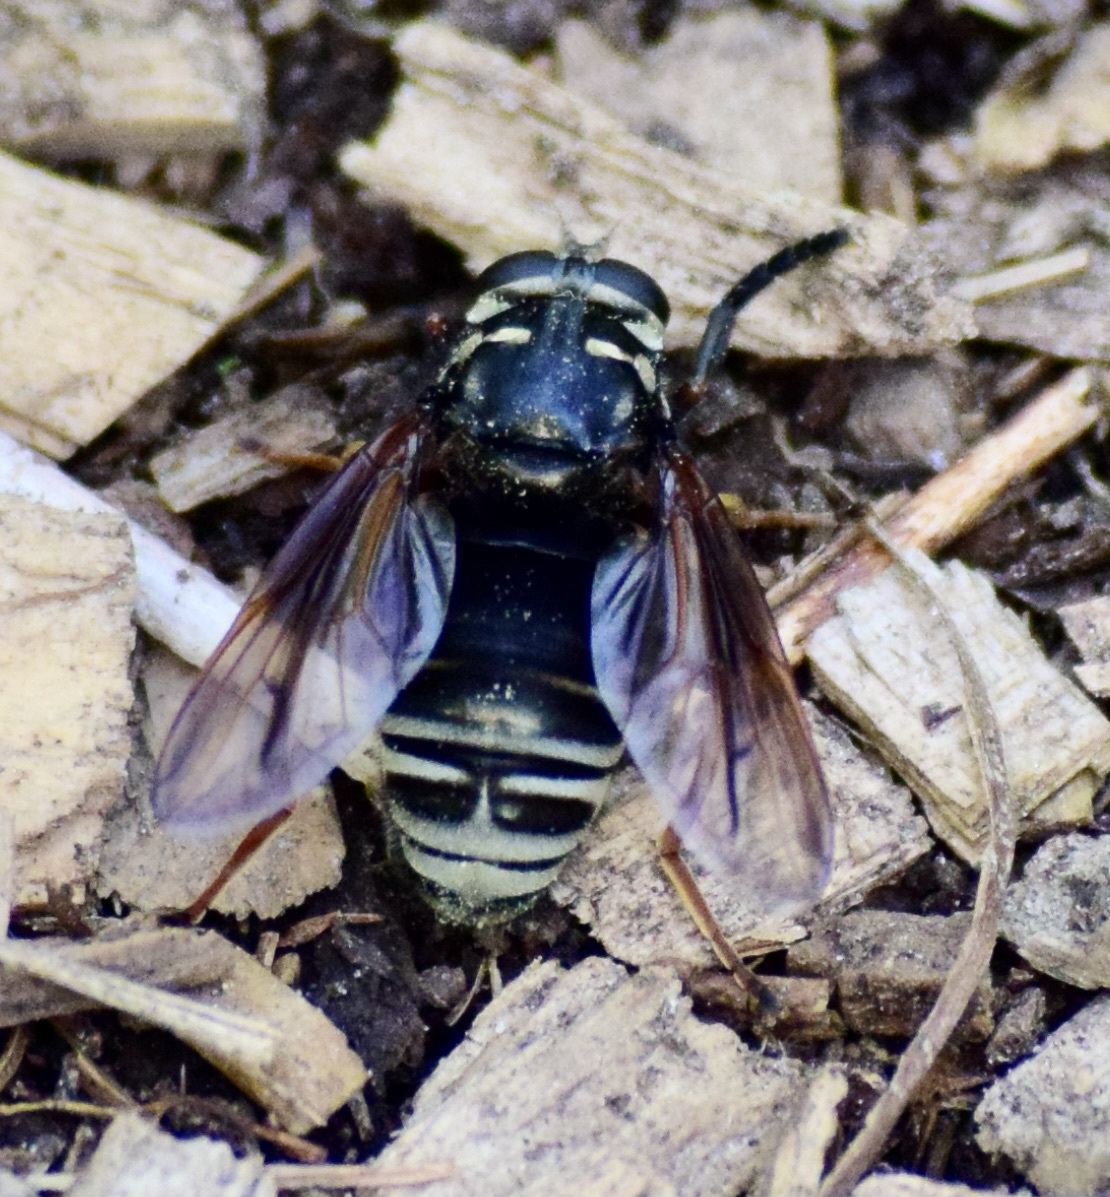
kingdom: Animalia
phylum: Arthropoda
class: Insecta
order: Diptera
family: Syrphidae
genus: Temnostoma
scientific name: Temnostoma venustum
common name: Black-banded falsehorn
